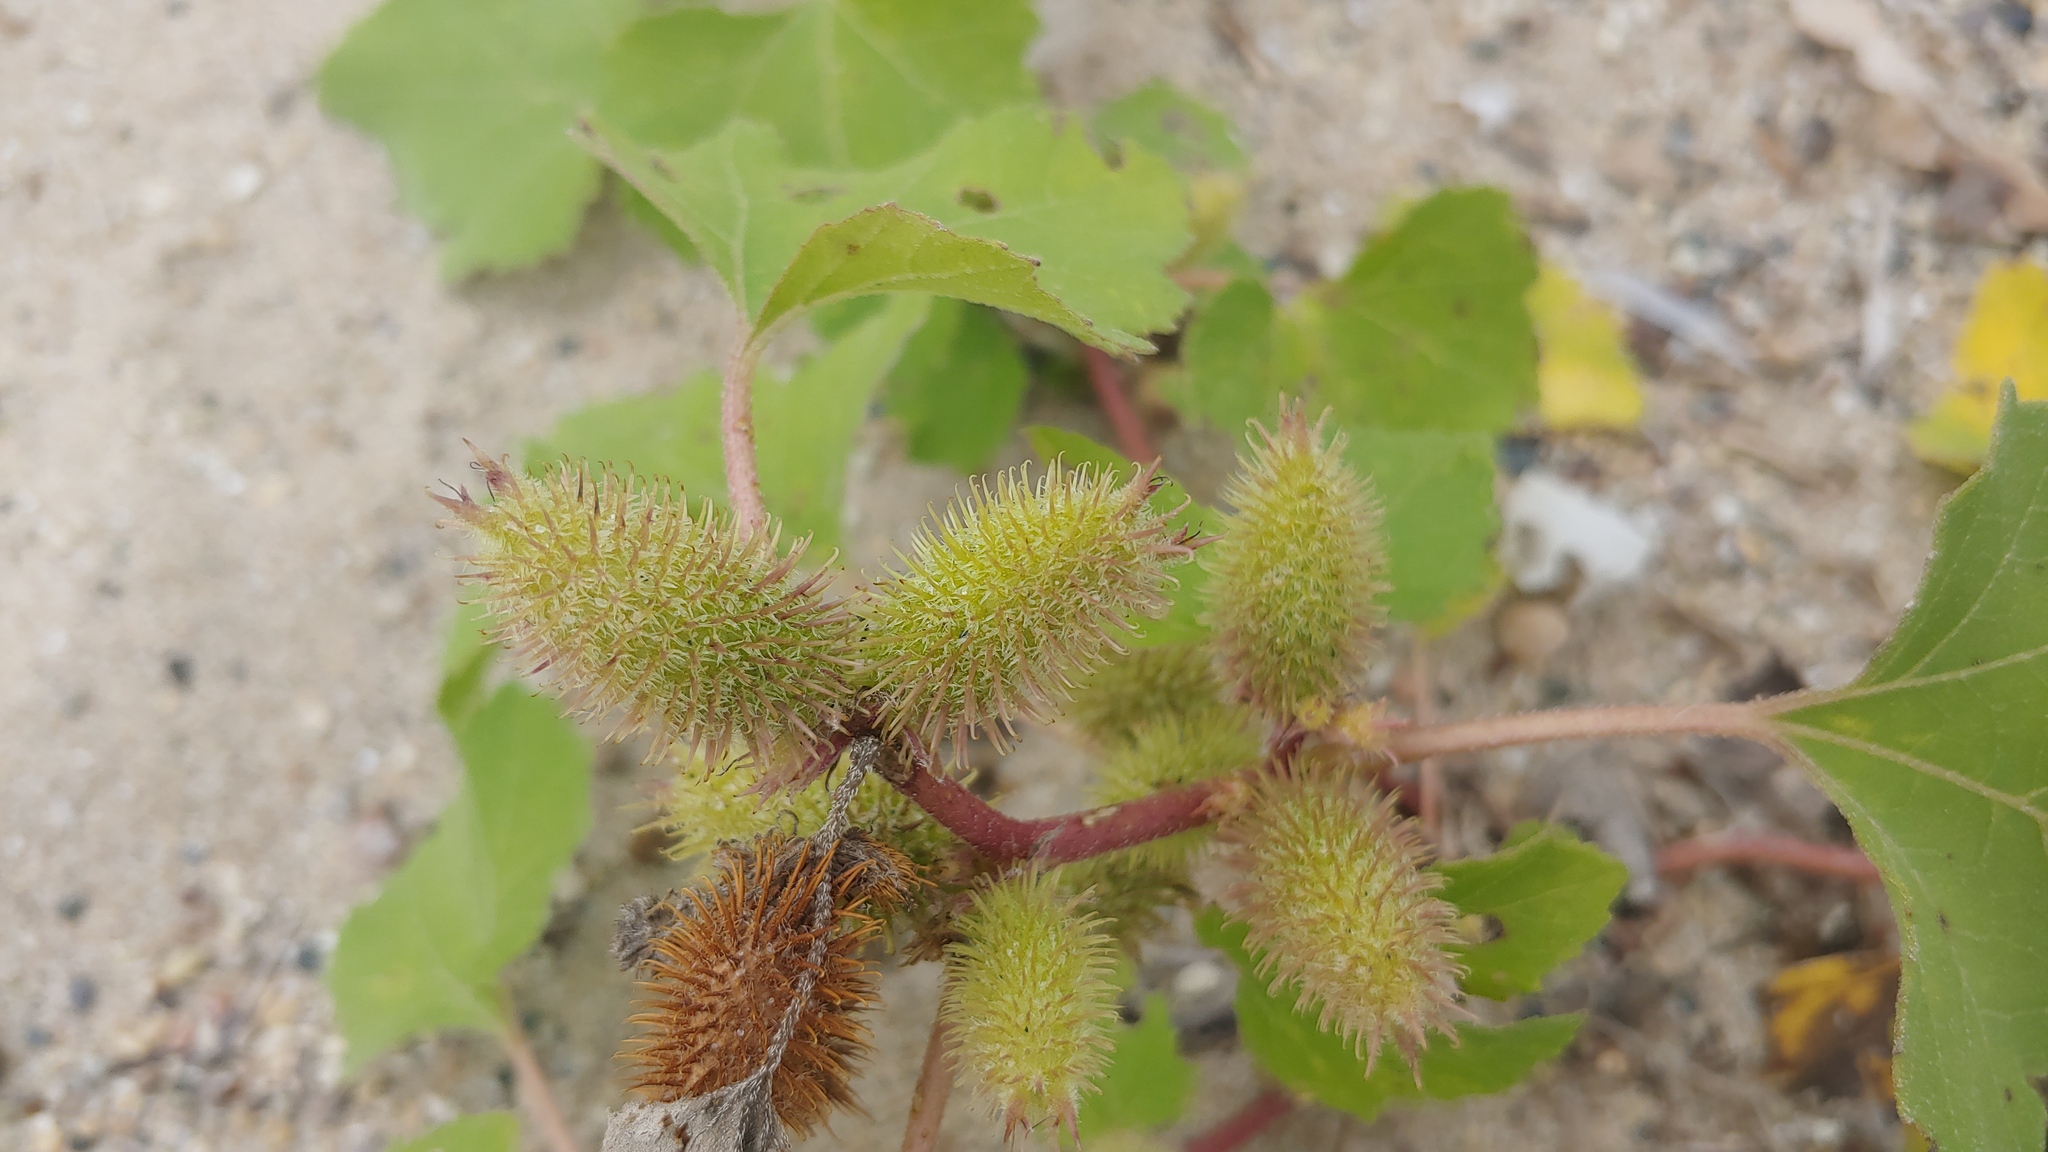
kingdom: Plantae
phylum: Tracheophyta
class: Magnoliopsida
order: Asterales
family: Asteraceae
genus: Xanthium
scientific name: Xanthium orientale
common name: Californian burr
